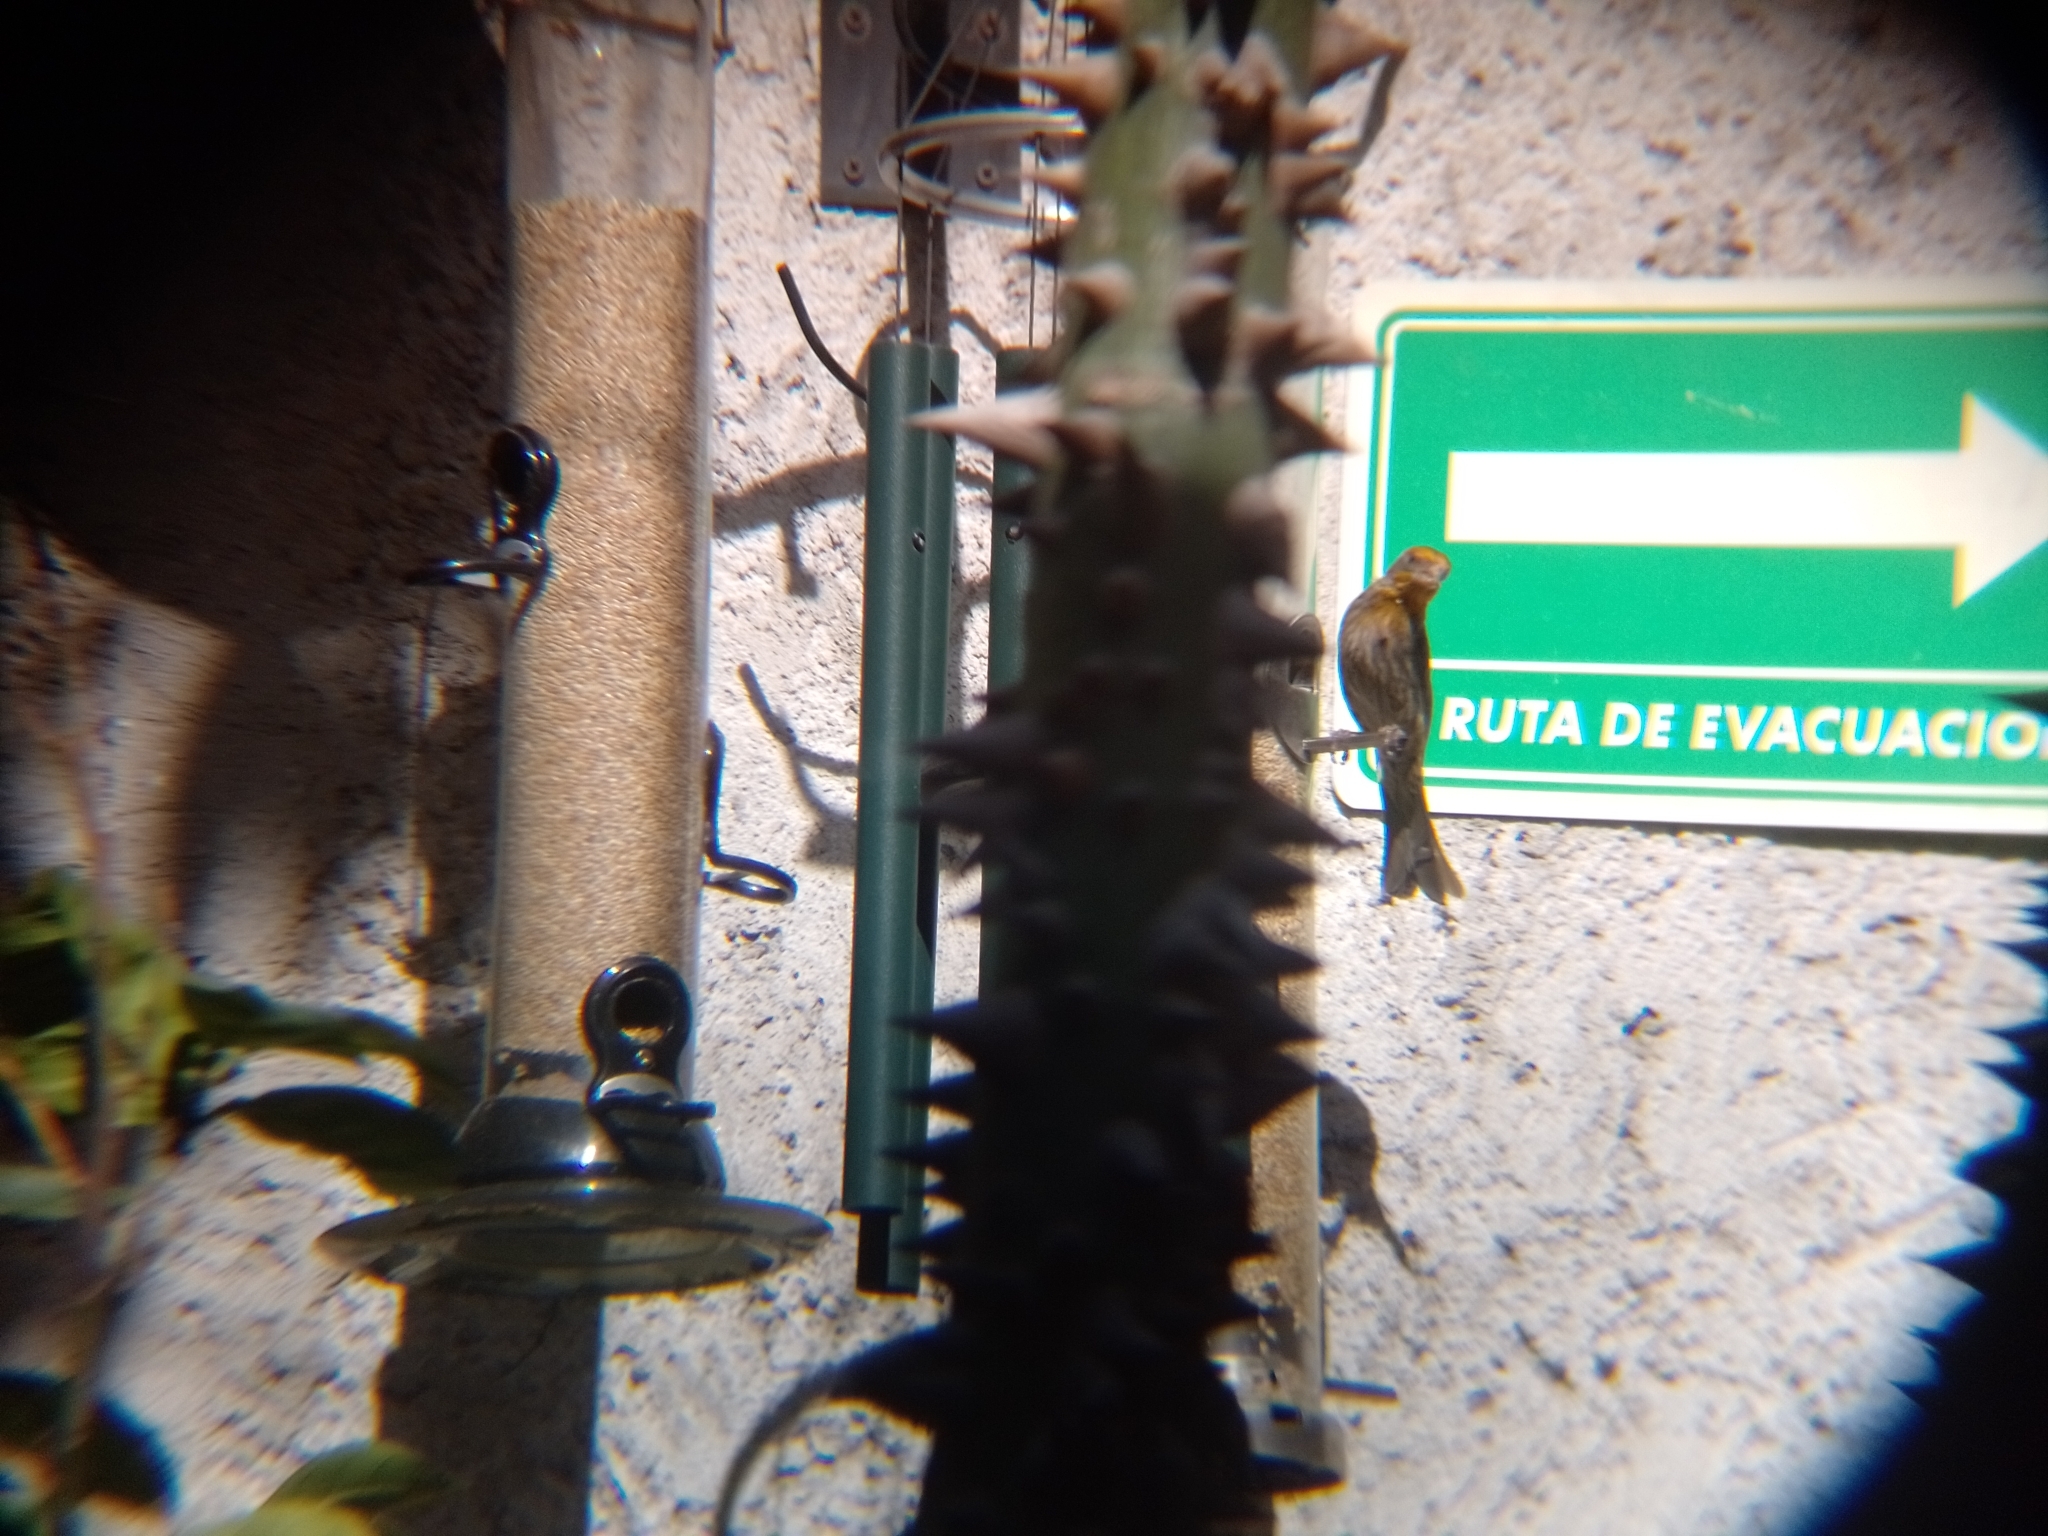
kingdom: Animalia
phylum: Chordata
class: Aves
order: Passeriformes
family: Fringillidae
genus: Haemorhous
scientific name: Haemorhous mexicanus
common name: House finch
